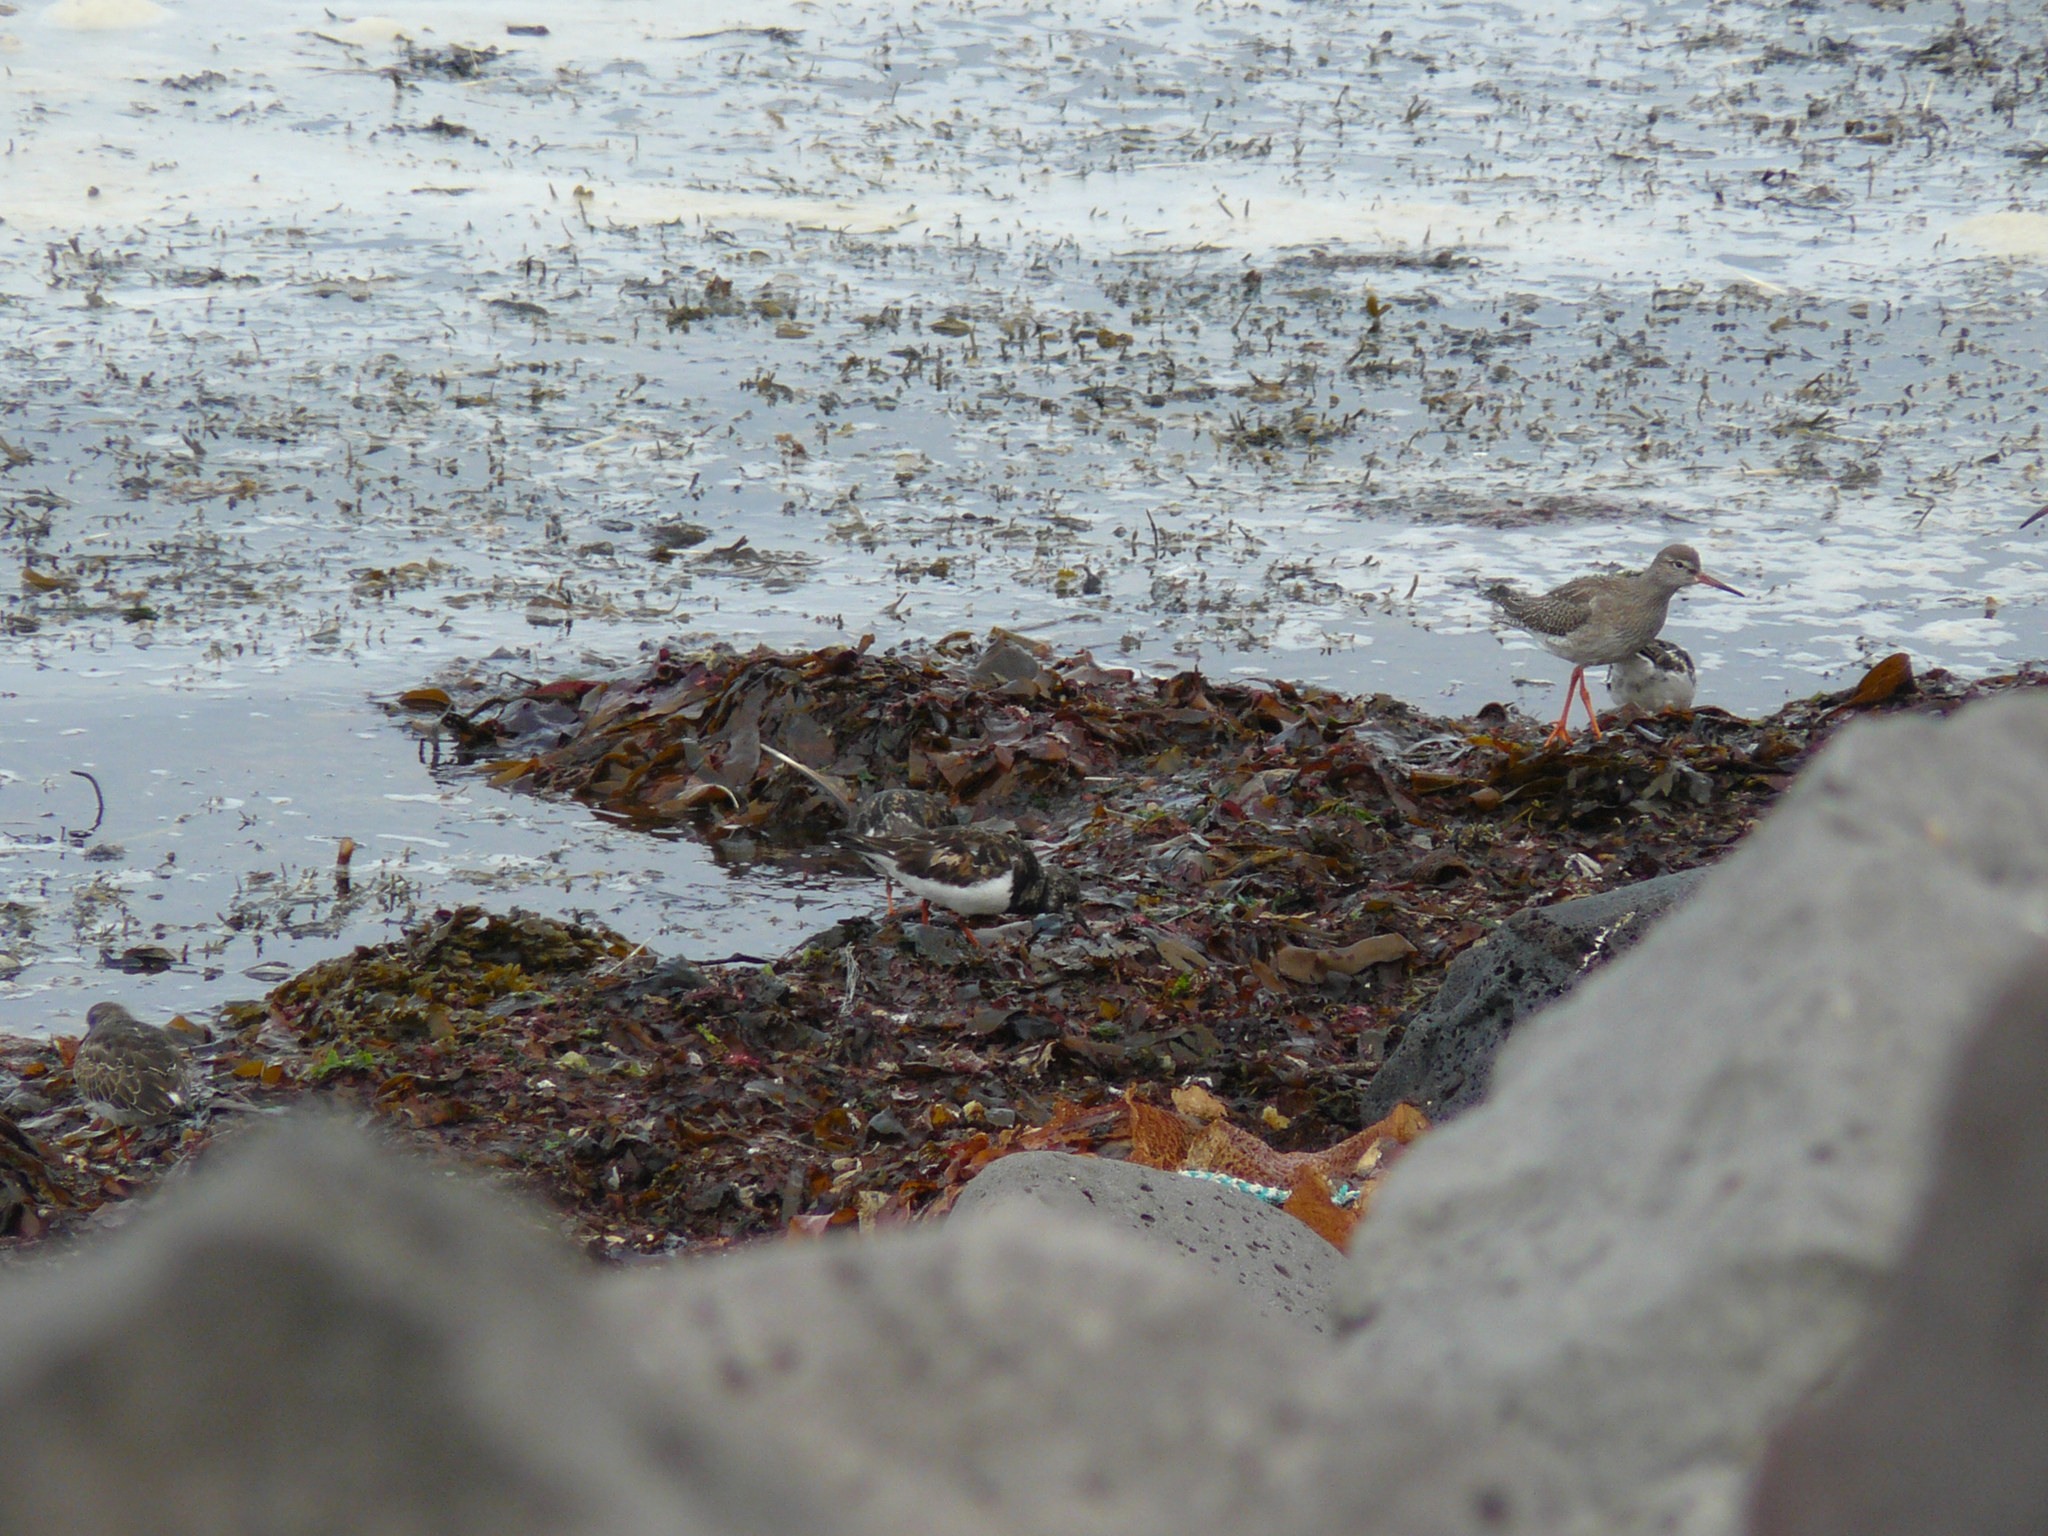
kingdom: Animalia
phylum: Chordata
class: Aves
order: Charadriiformes
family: Scolopacidae
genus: Tringa
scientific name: Tringa totanus
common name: Common redshank
